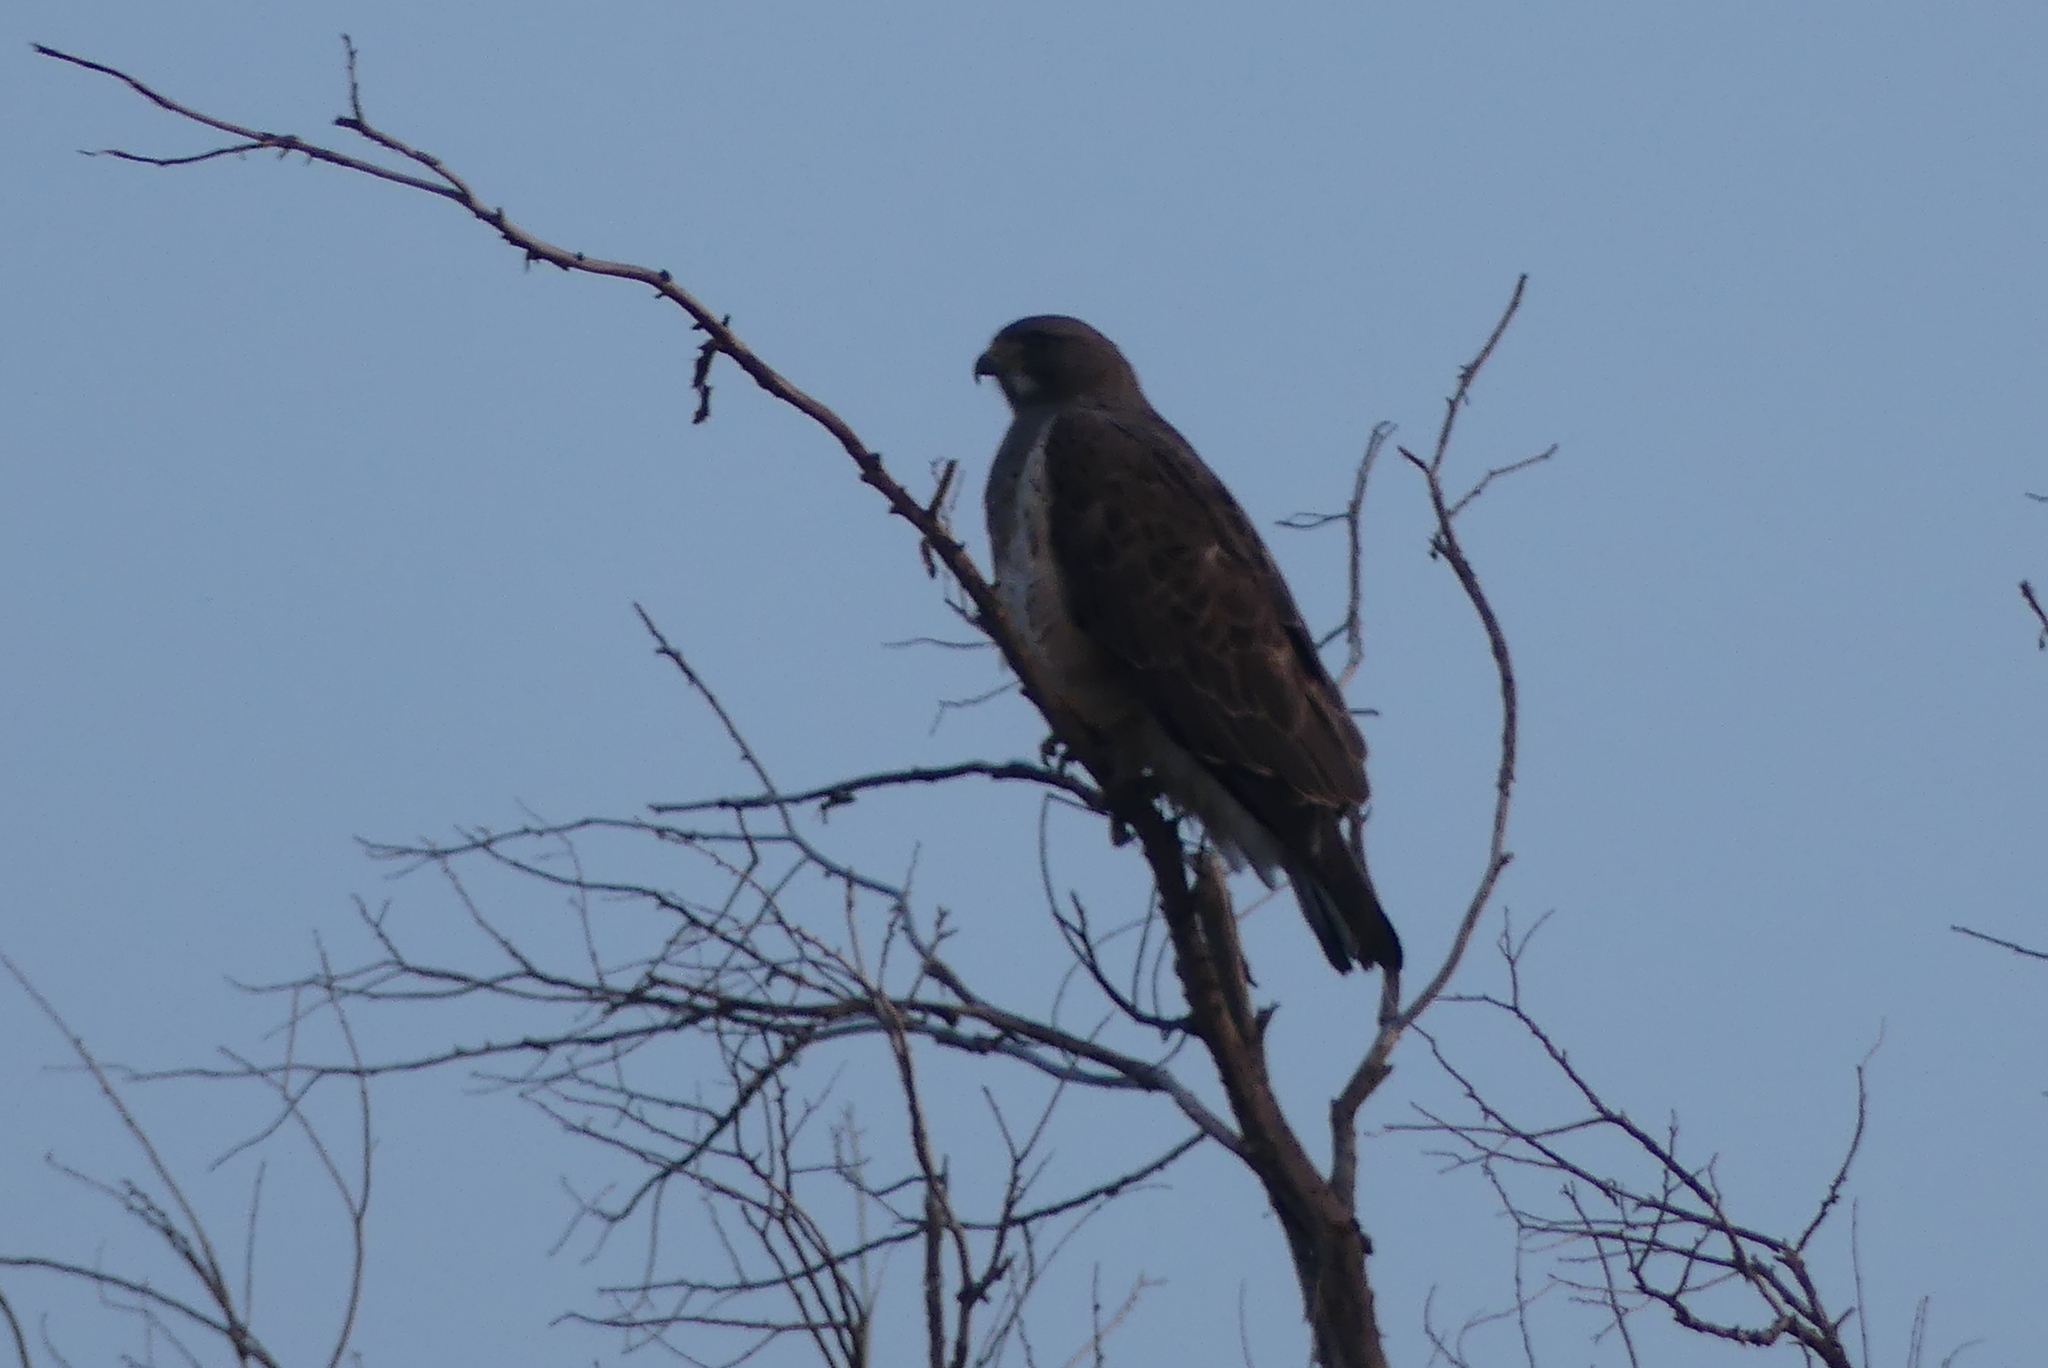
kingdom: Animalia
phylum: Chordata
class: Aves
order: Accipitriformes
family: Accipitridae
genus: Buteo
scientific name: Buteo swainsoni
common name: Swainson's hawk
